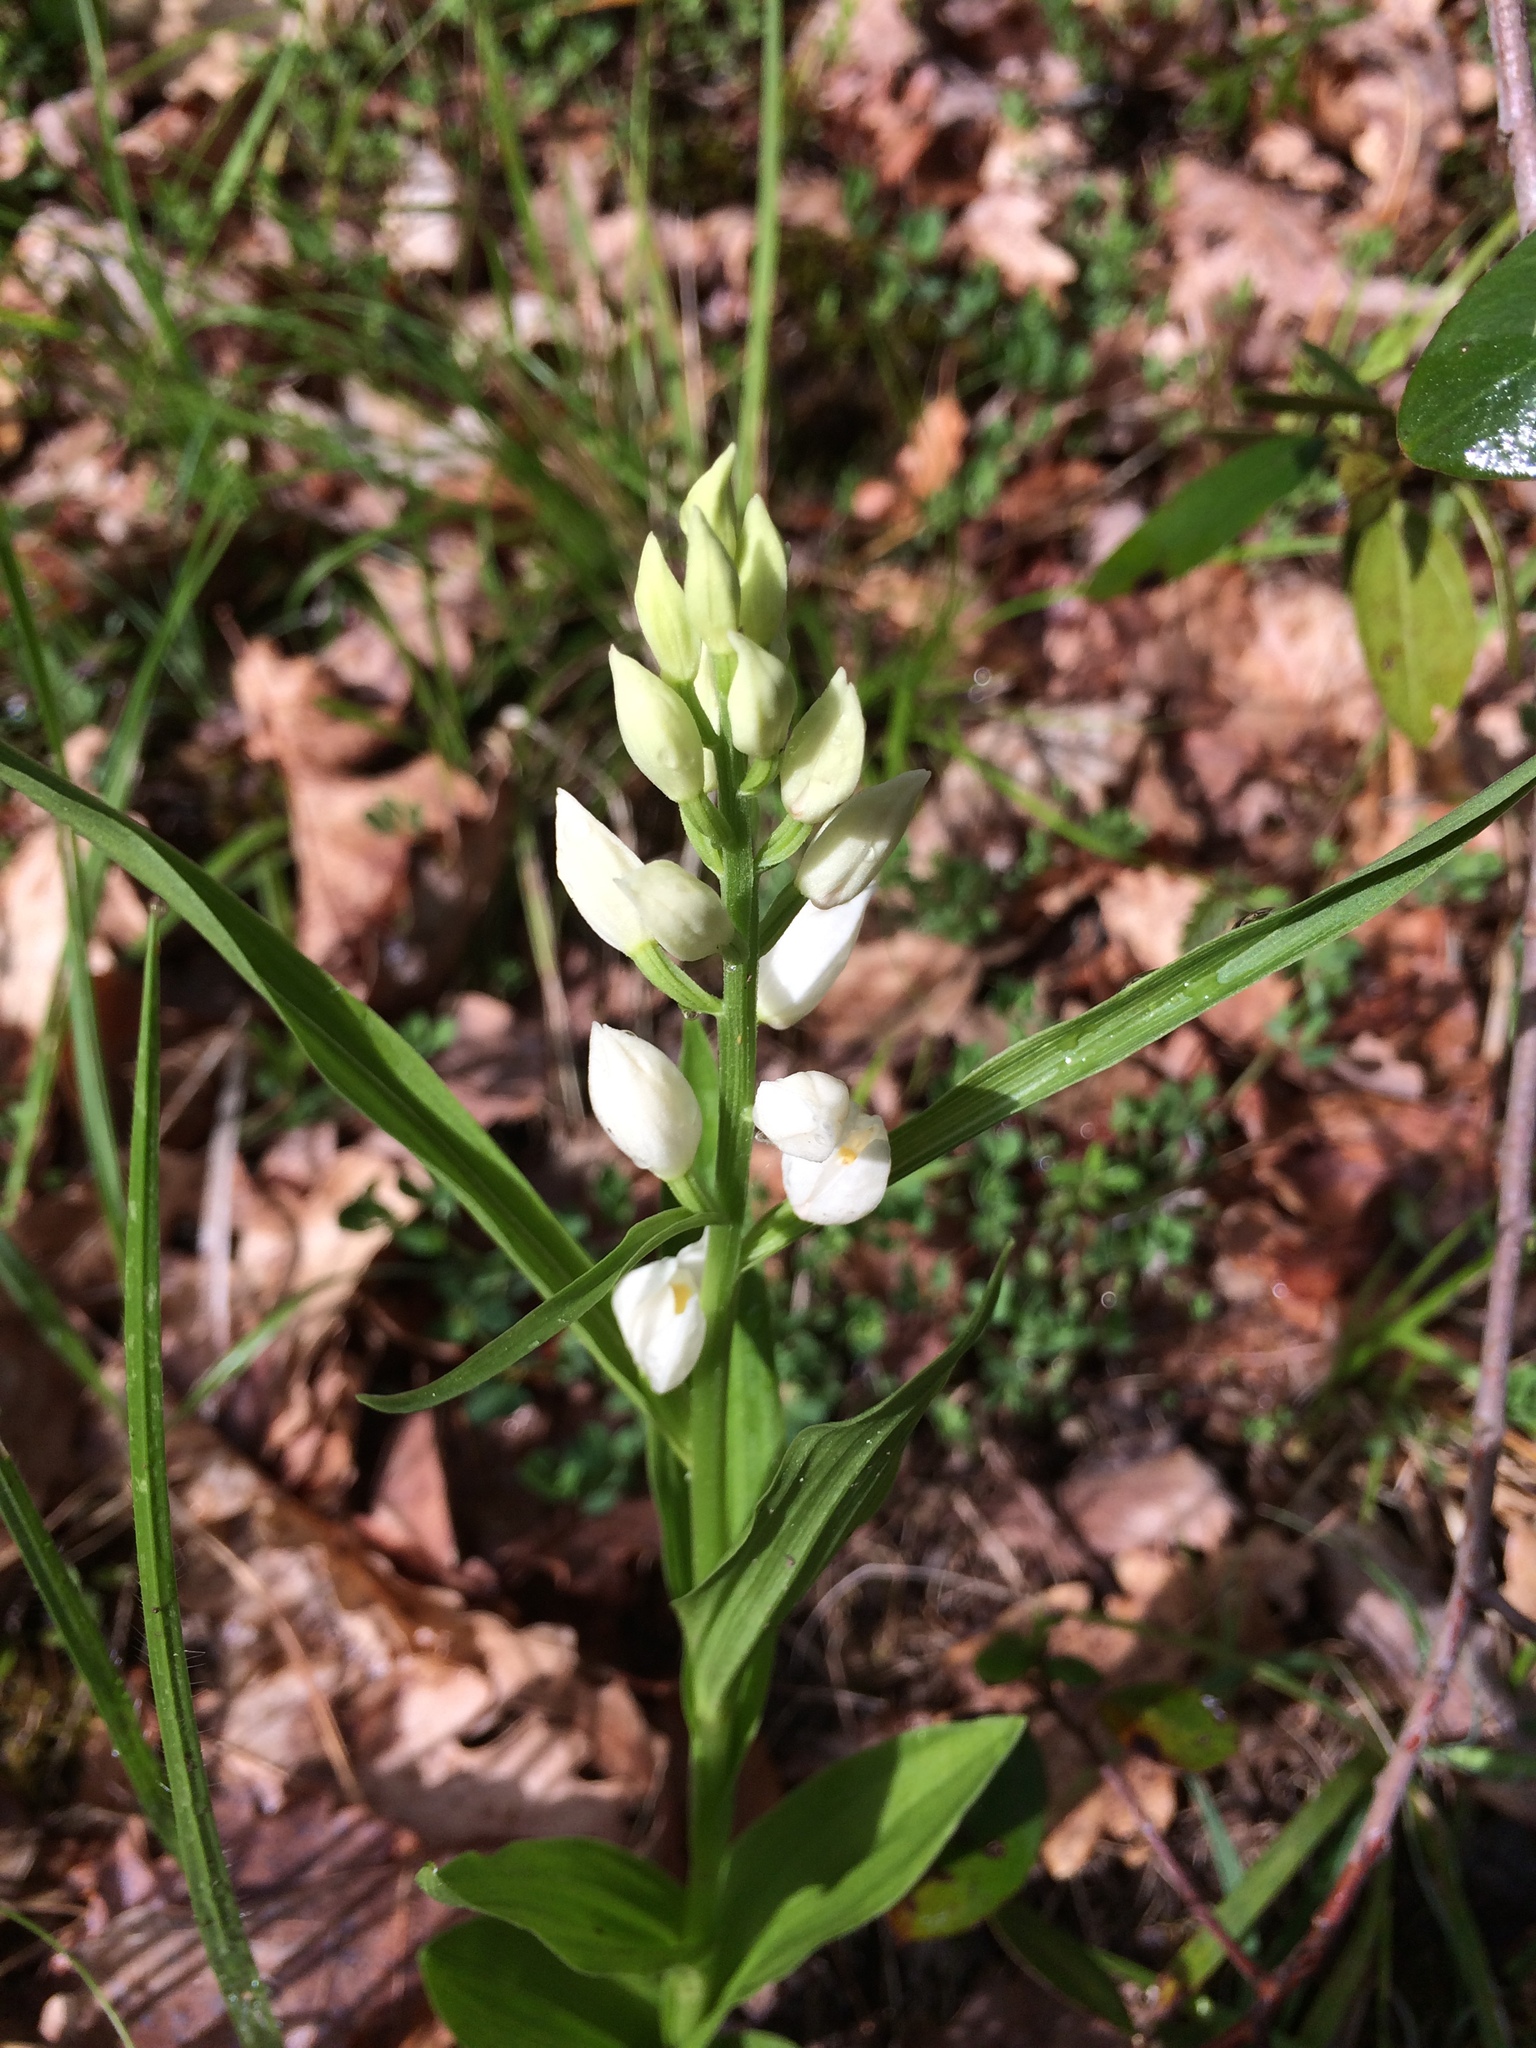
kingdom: Plantae
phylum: Tracheophyta
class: Liliopsida
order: Asparagales
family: Orchidaceae
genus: Cephalanthera
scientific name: Cephalanthera longifolia
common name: Narrow-leaved helleborine
